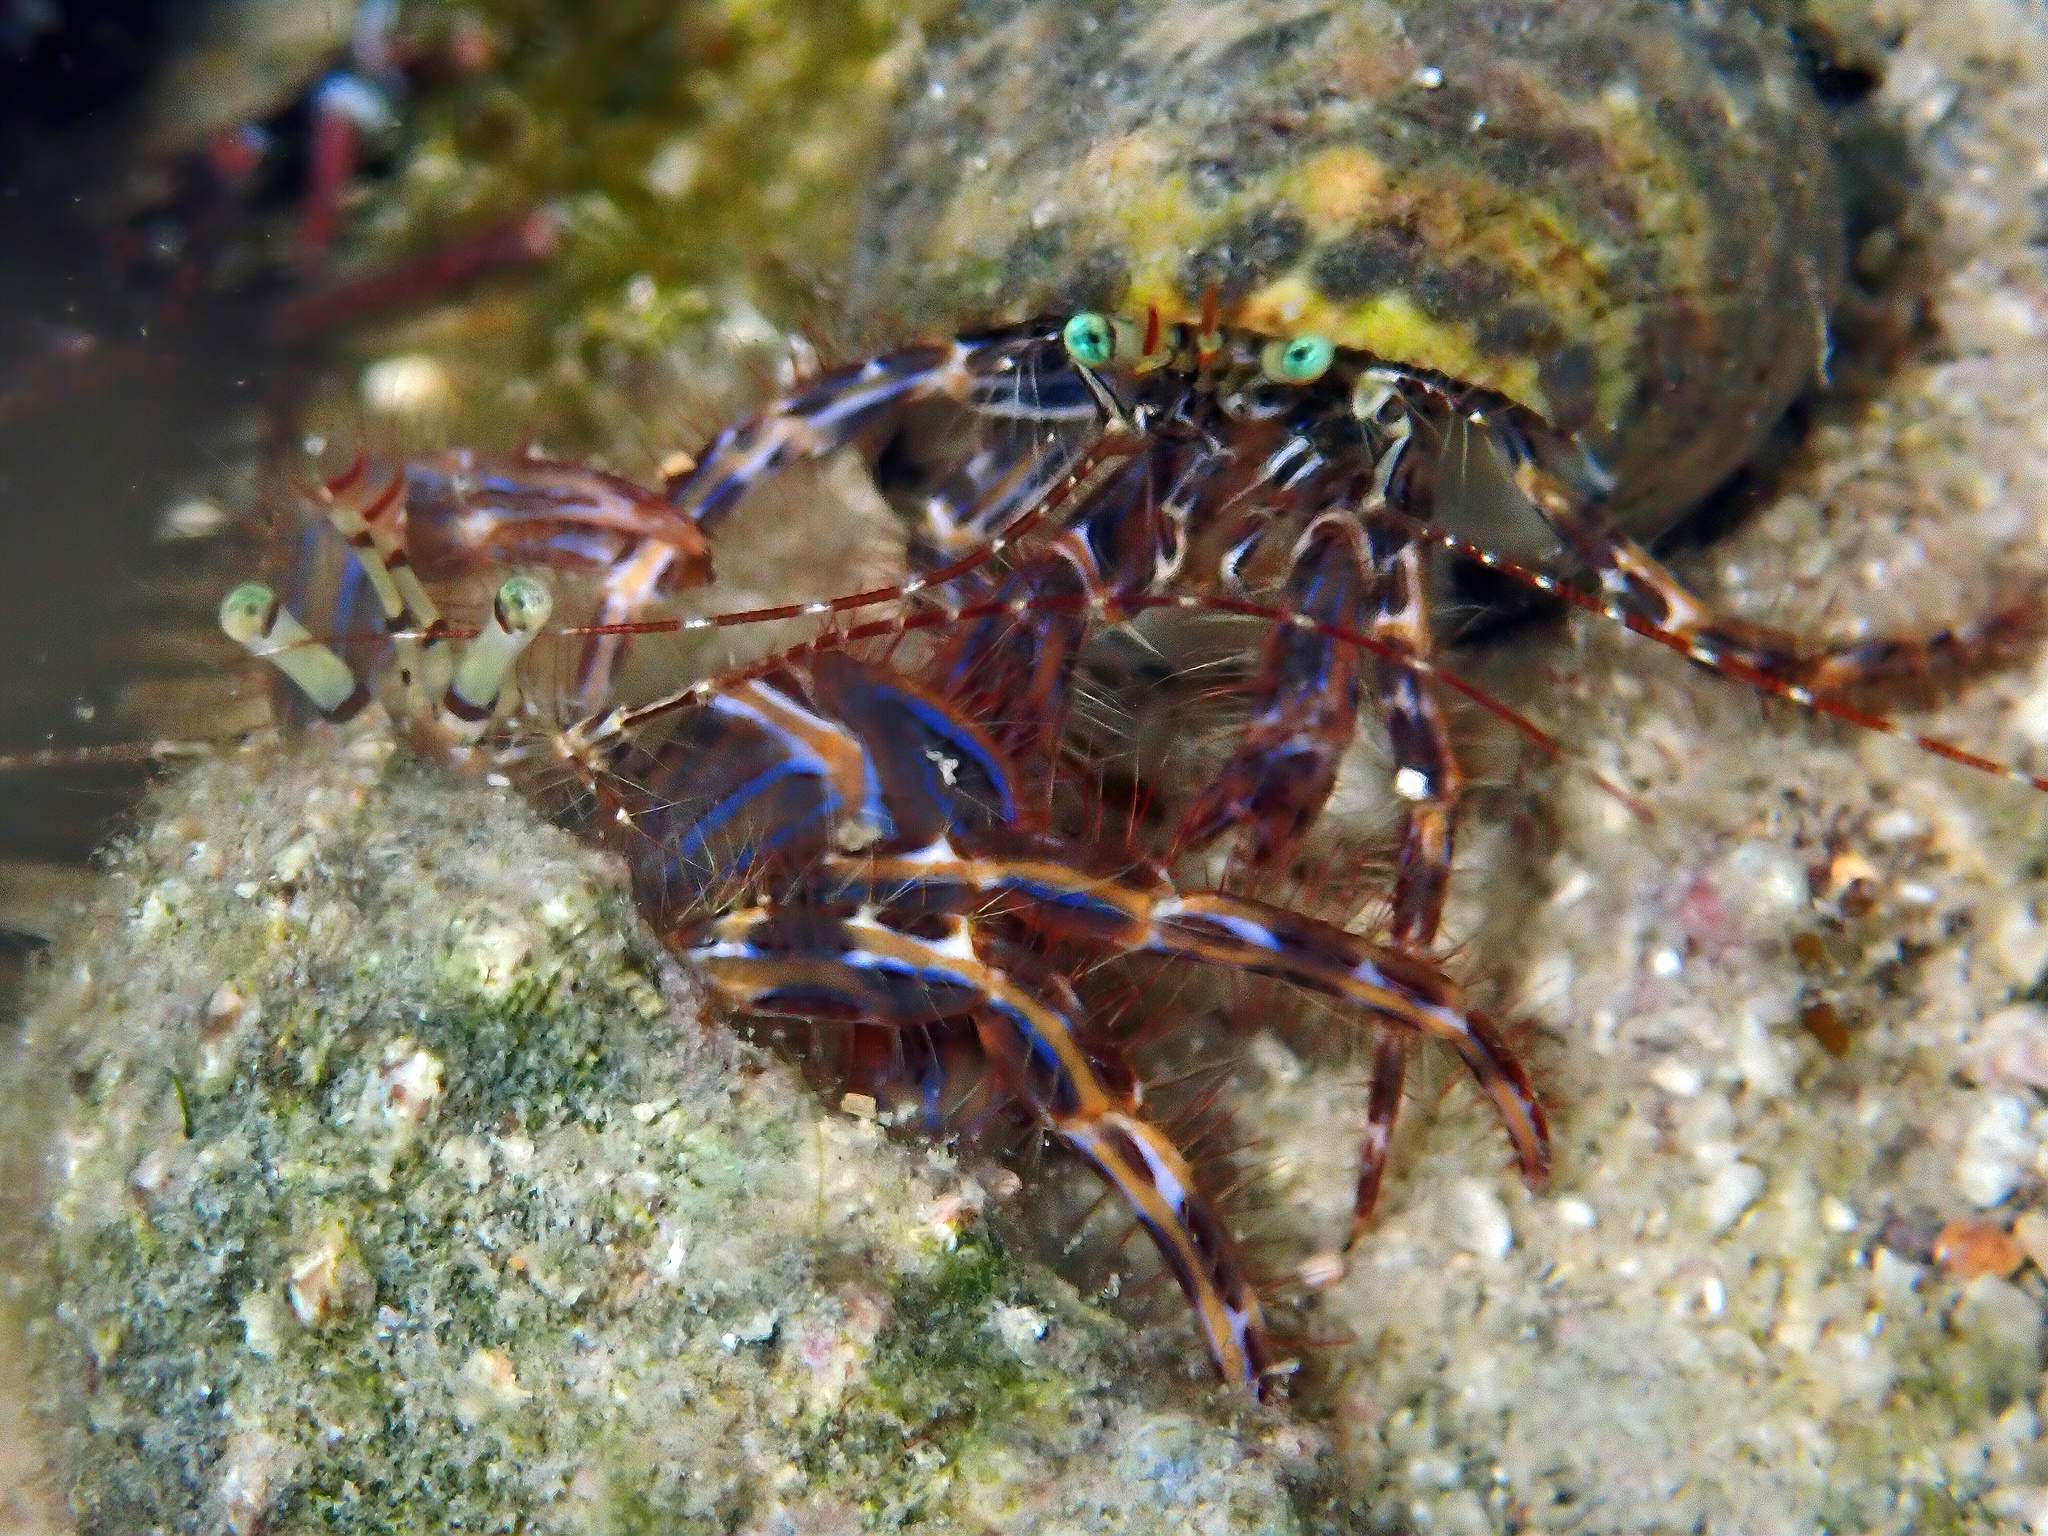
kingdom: Animalia
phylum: Arthropoda
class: Malacostraca
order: Decapoda
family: Paguridae
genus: Pagurus
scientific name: Pagurus anachoretus
